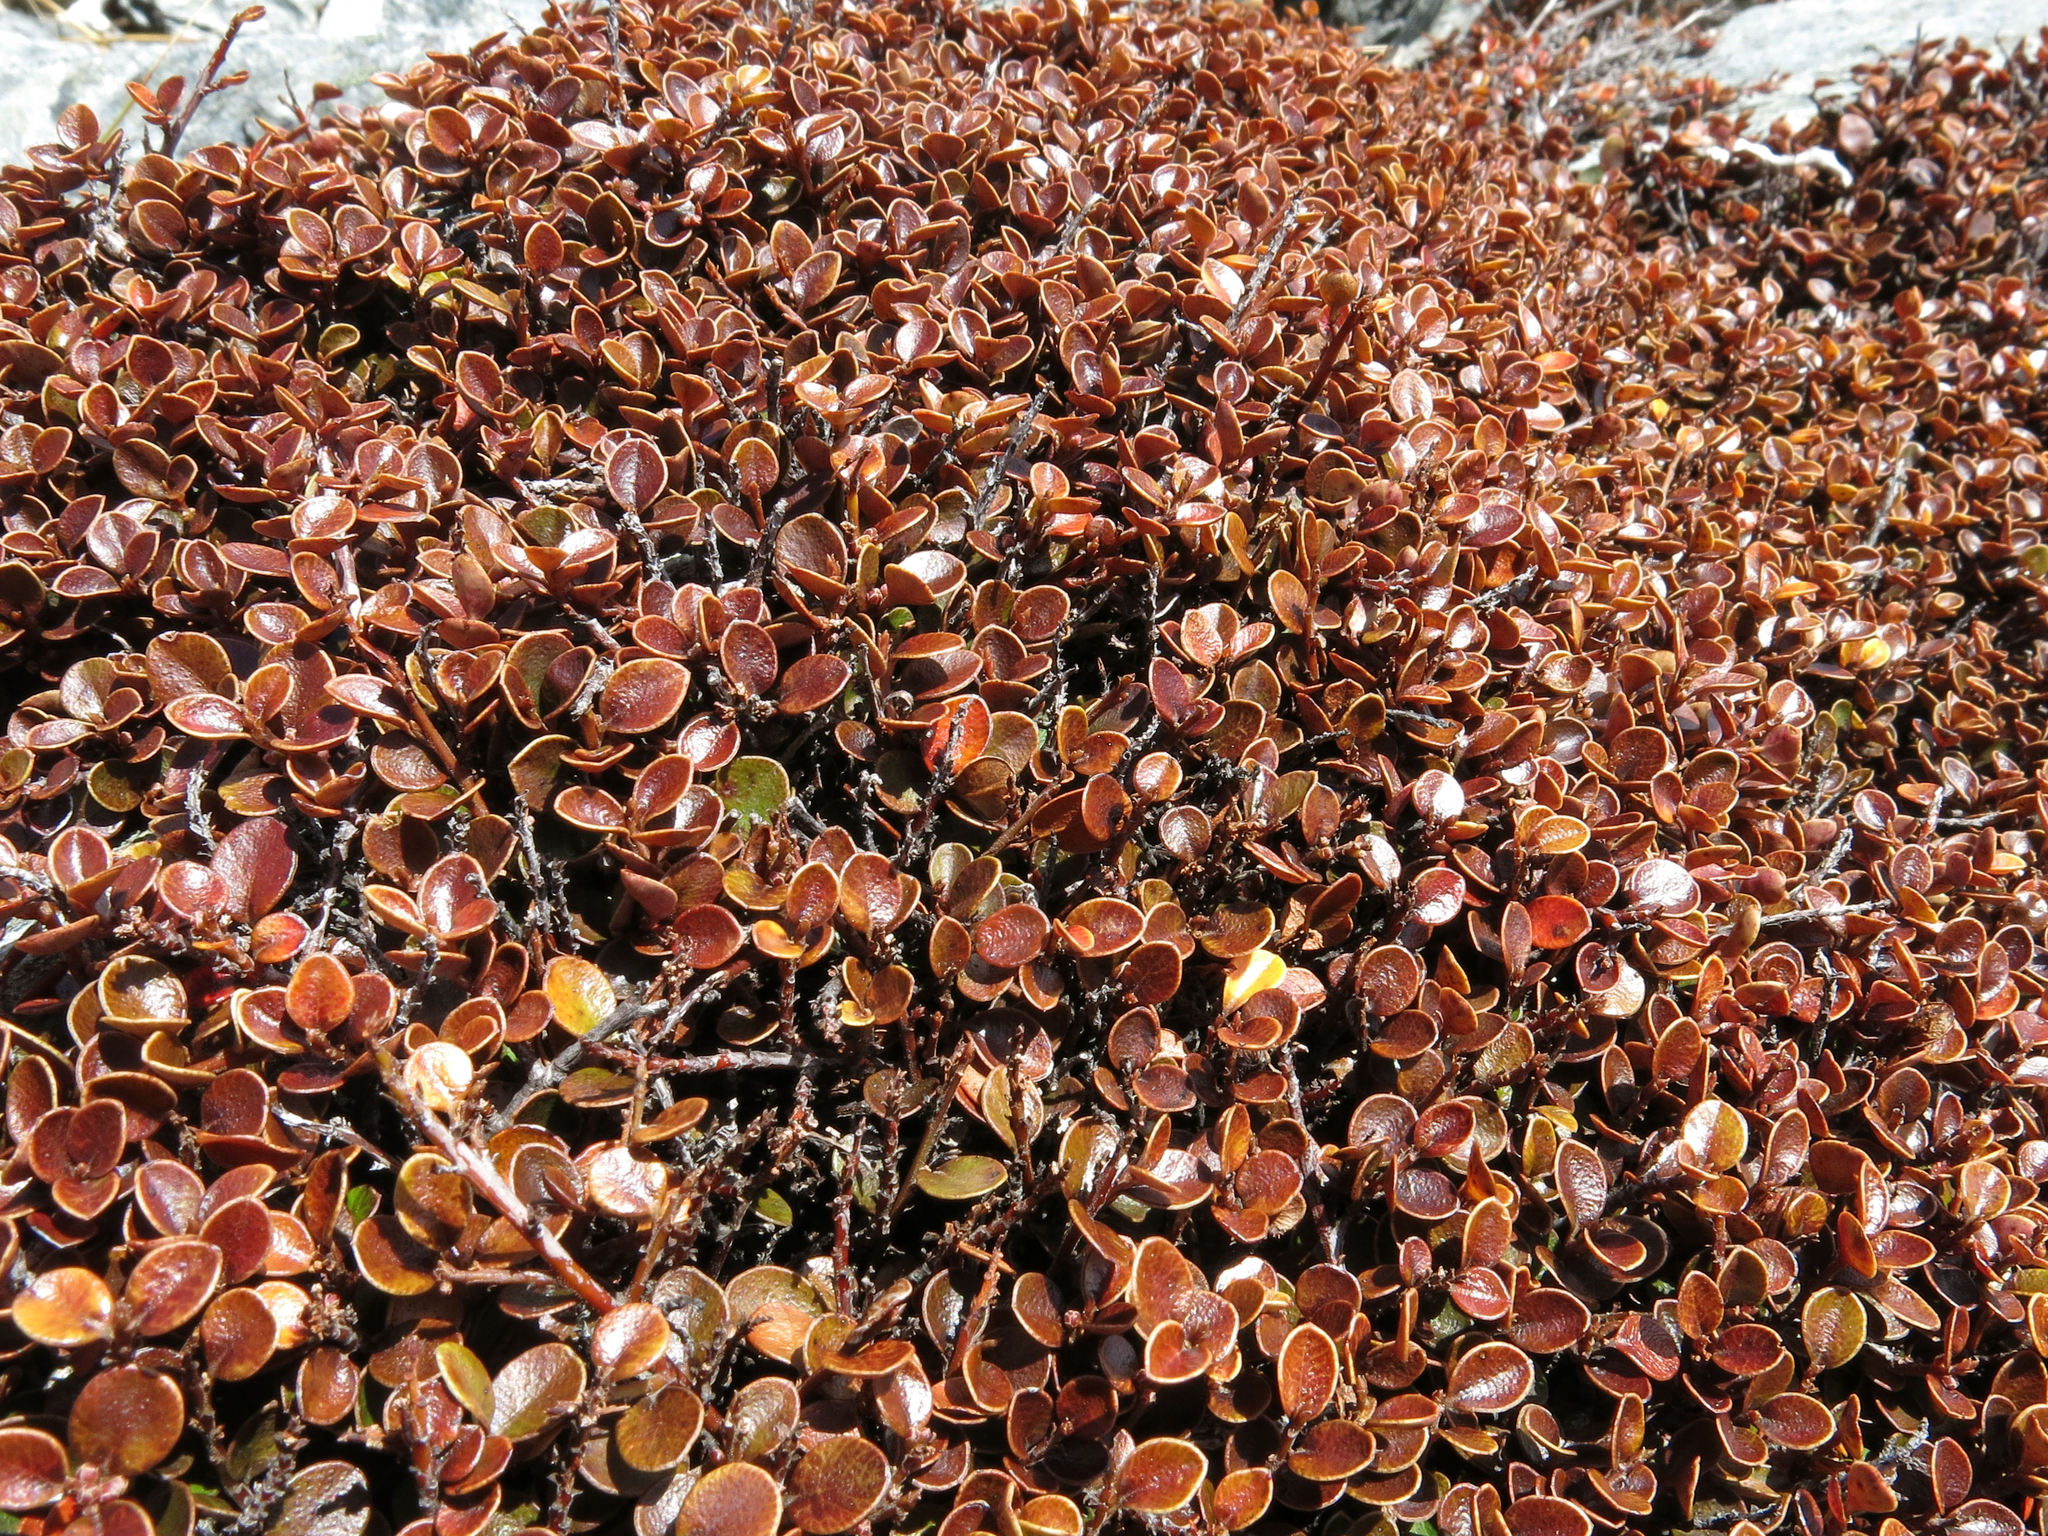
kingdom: Plantae
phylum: Tracheophyta
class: Magnoliopsida
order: Ericales
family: Primulaceae
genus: Myrsine
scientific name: Myrsine nummularia
